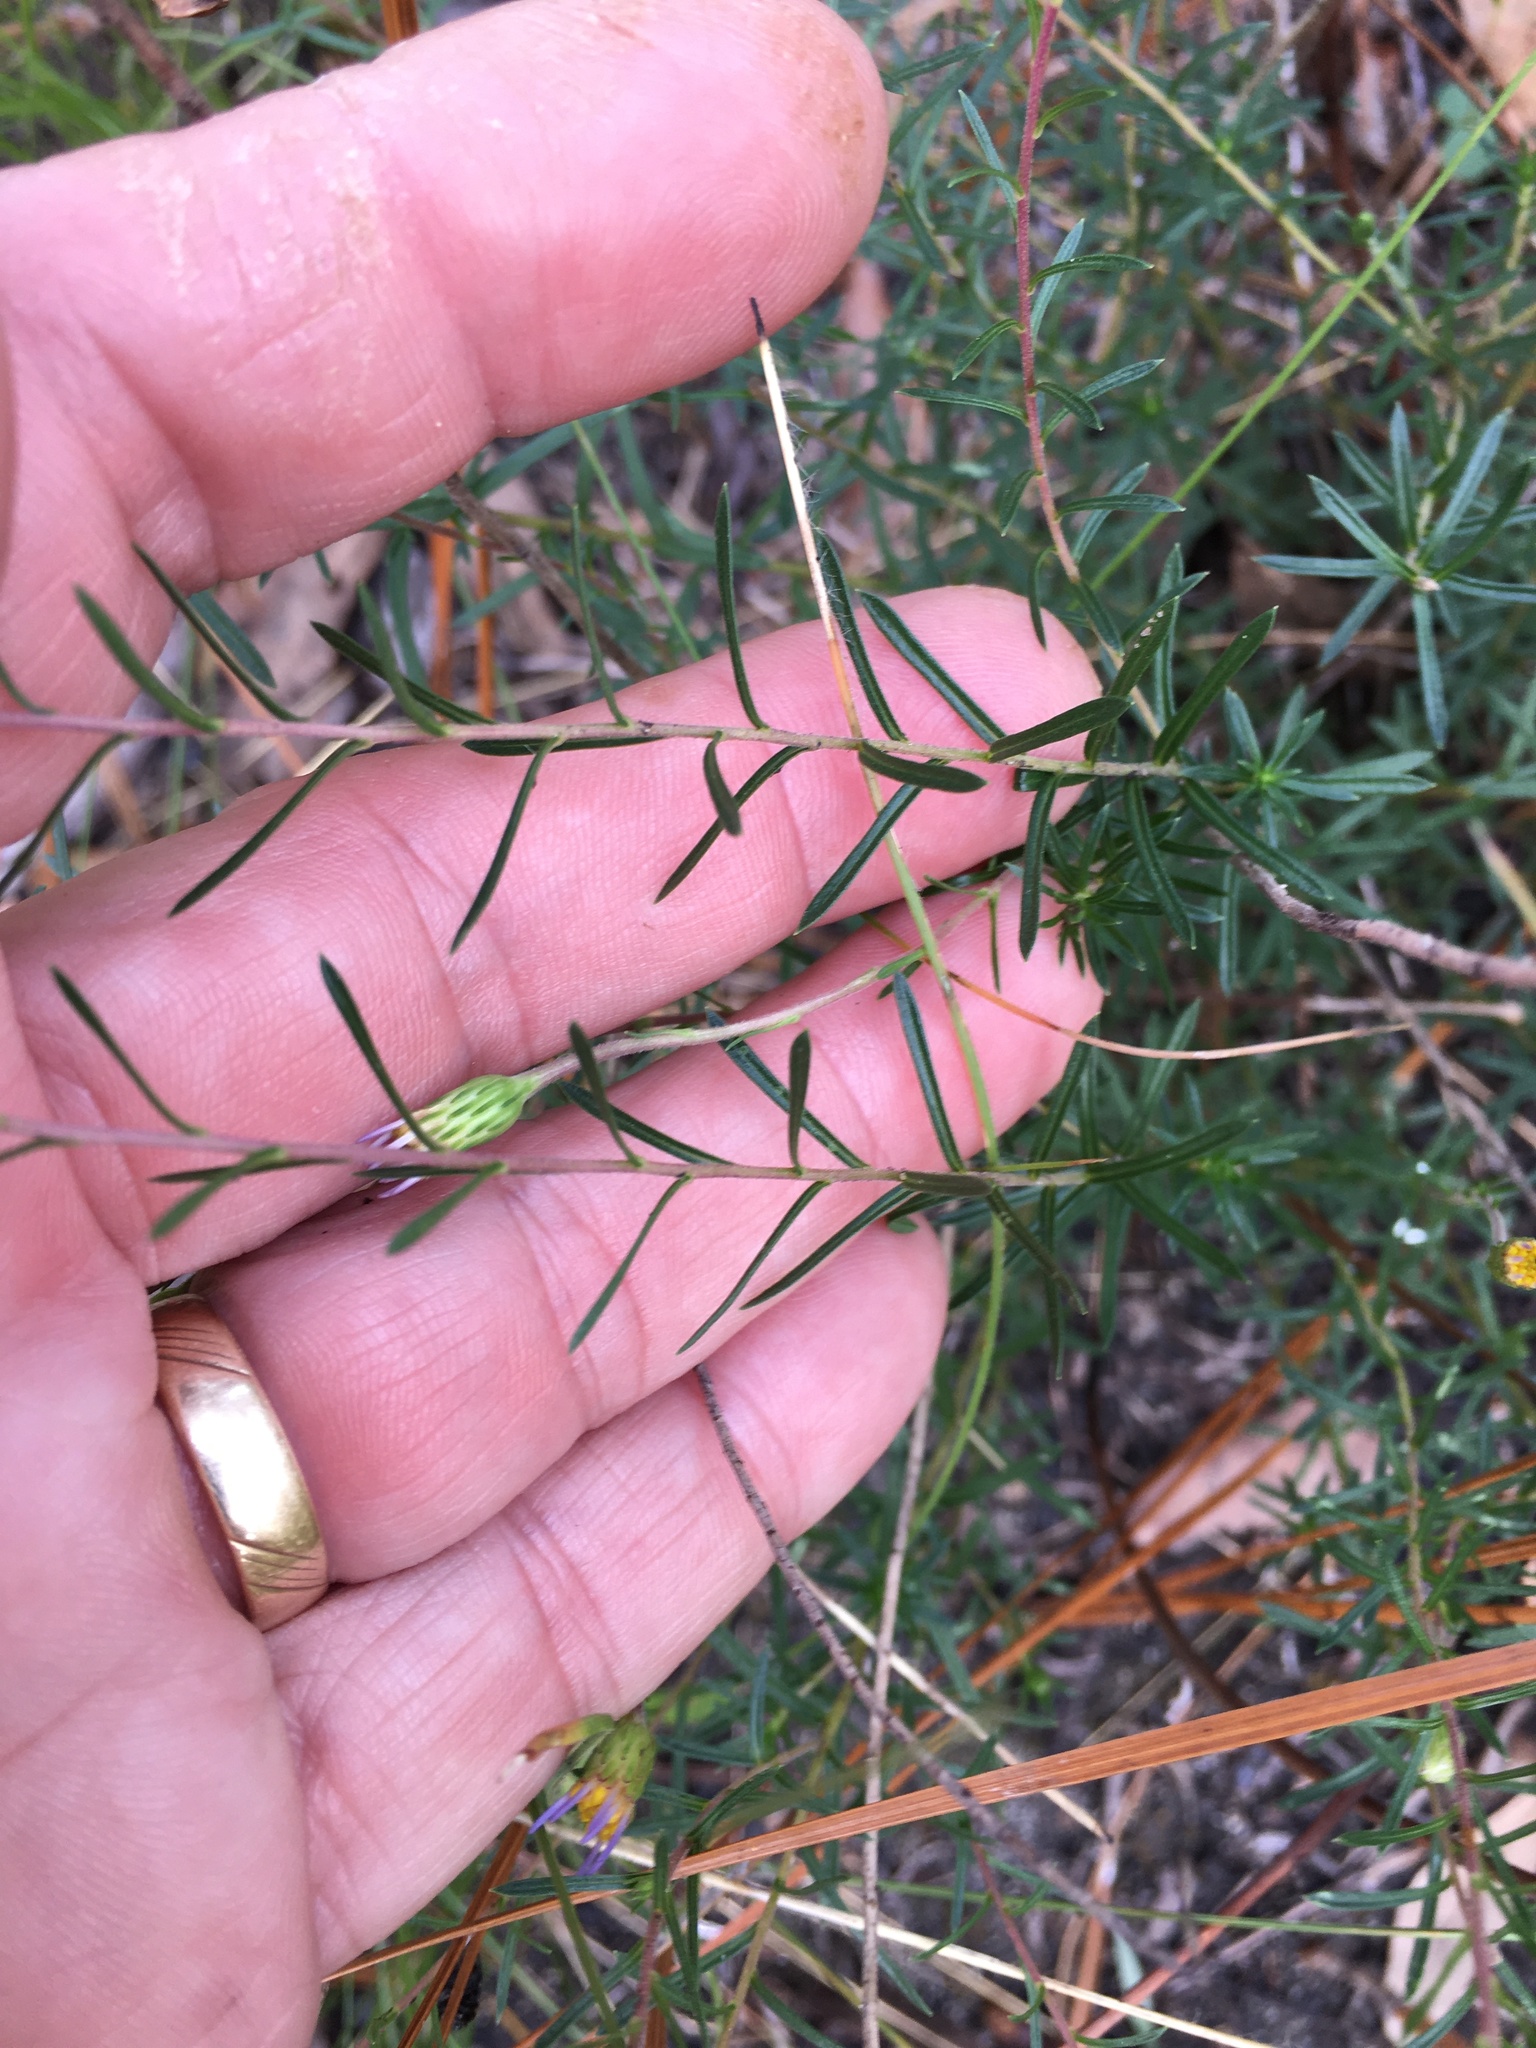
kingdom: Plantae
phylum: Tracheophyta
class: Magnoliopsida
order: Asterales
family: Asteraceae
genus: Ionactis
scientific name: Ionactis linariifolia
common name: Flax-leaf aster
